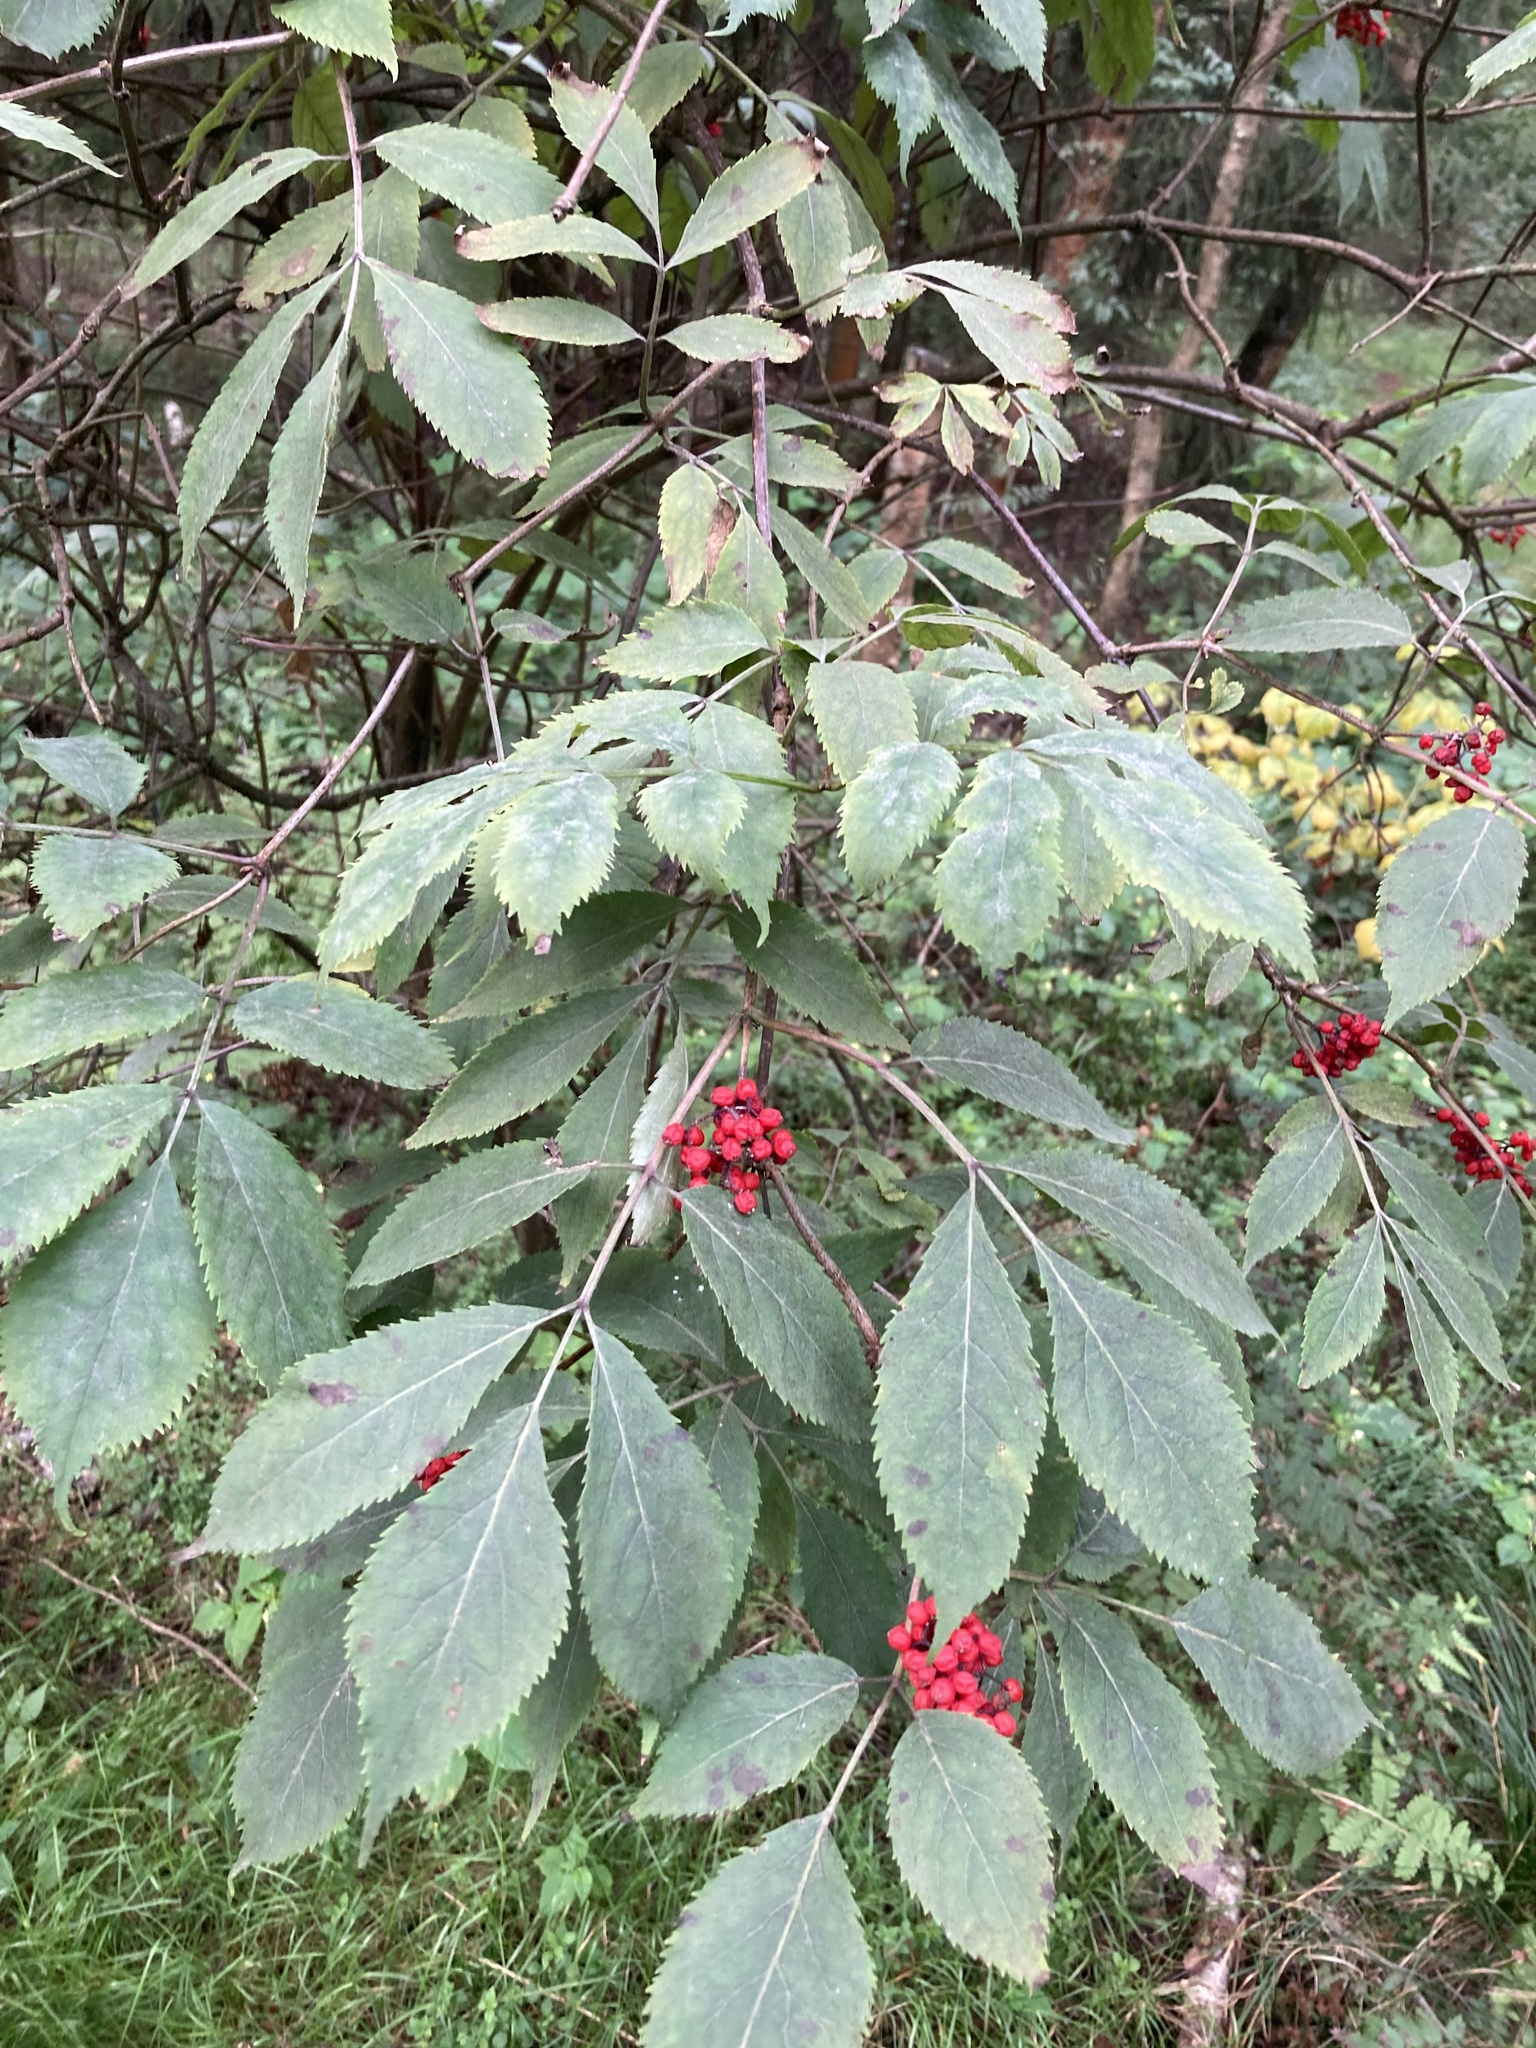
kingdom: Plantae
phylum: Tracheophyta
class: Magnoliopsida
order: Dipsacales
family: Viburnaceae
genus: Sambucus
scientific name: Sambucus racemosa
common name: Red-berried elder
